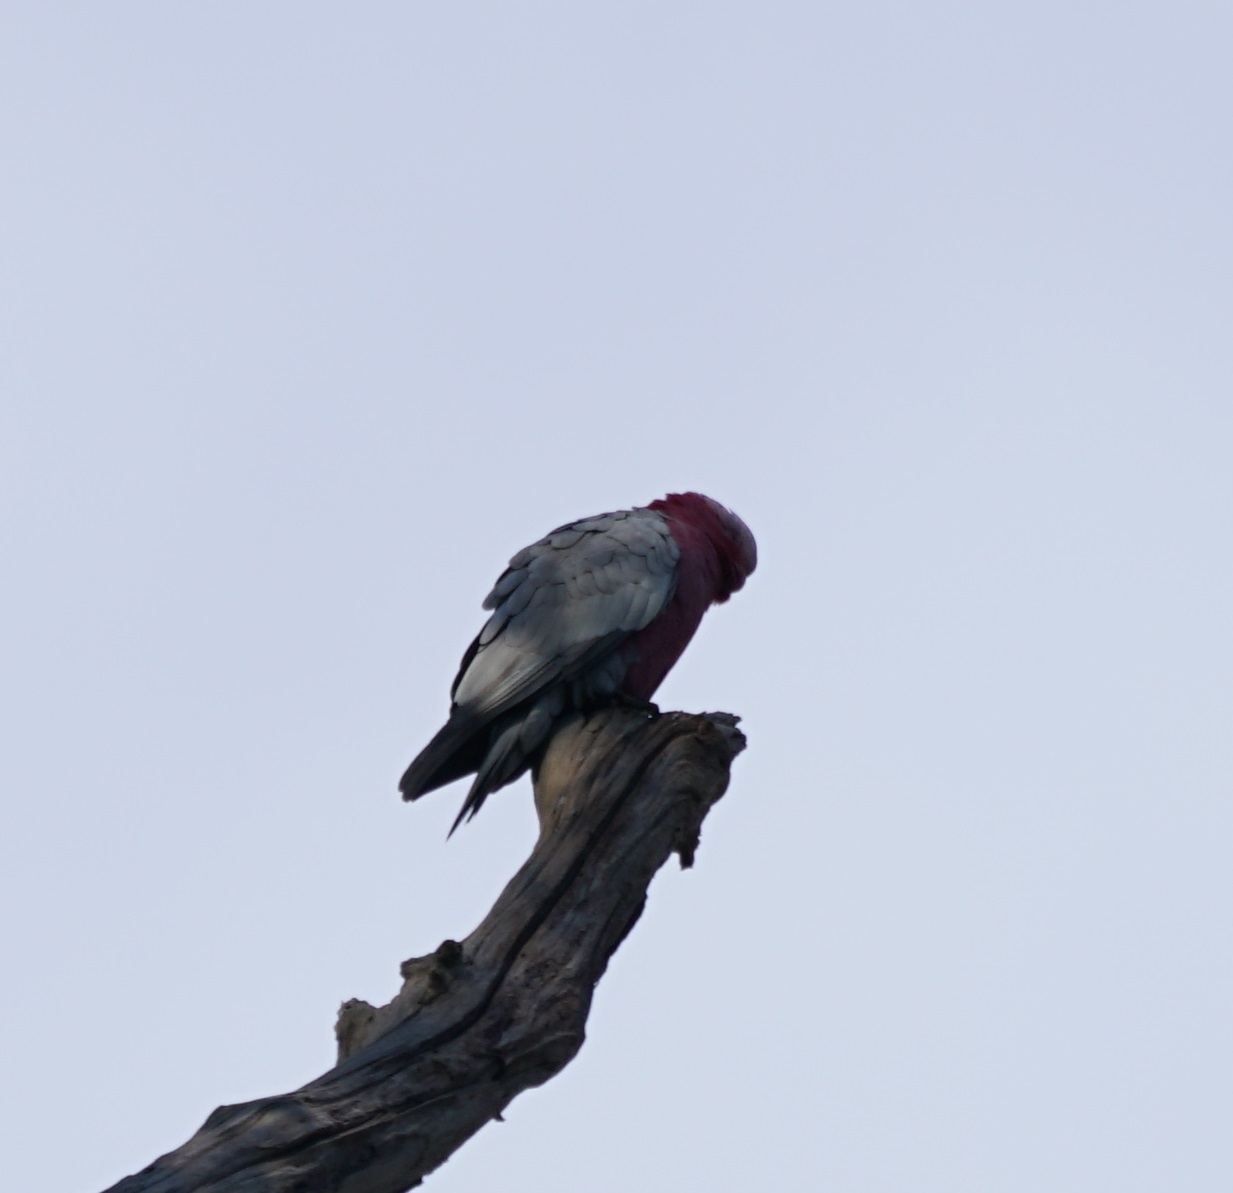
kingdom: Animalia
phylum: Chordata
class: Aves
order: Psittaciformes
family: Psittacidae
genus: Eolophus
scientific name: Eolophus roseicapilla
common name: Galah
